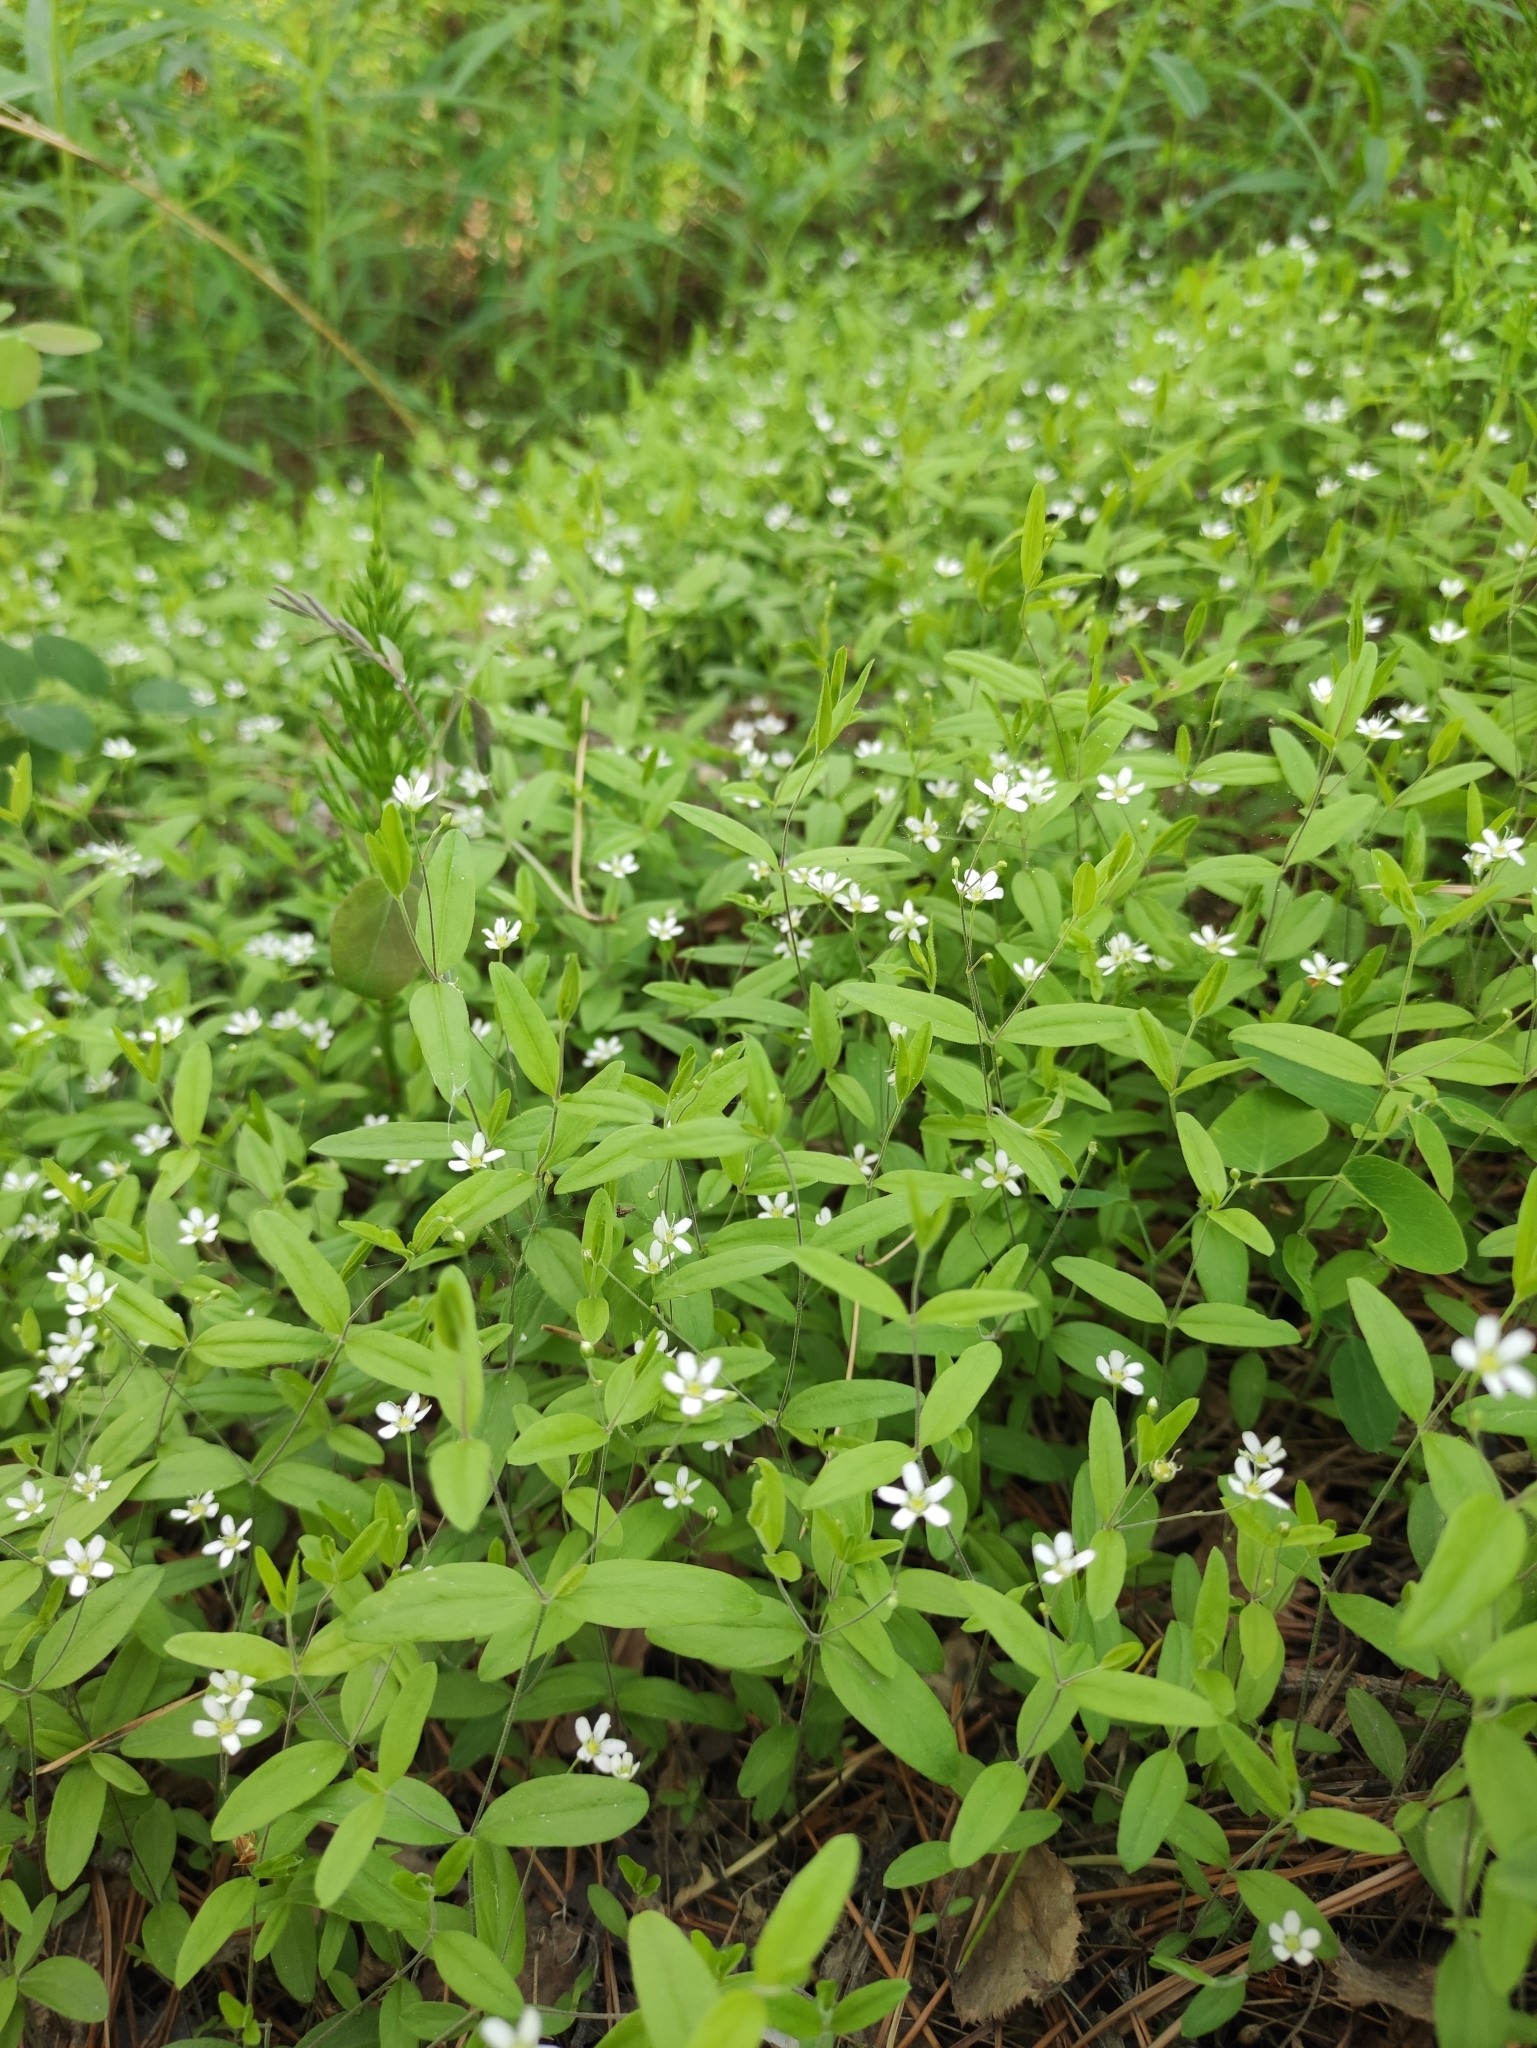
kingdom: Plantae
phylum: Tracheophyta
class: Magnoliopsida
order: Caryophyllales
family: Caryophyllaceae
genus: Moehringia
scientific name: Moehringia lateriflora
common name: Blunt-leaved sandwort
